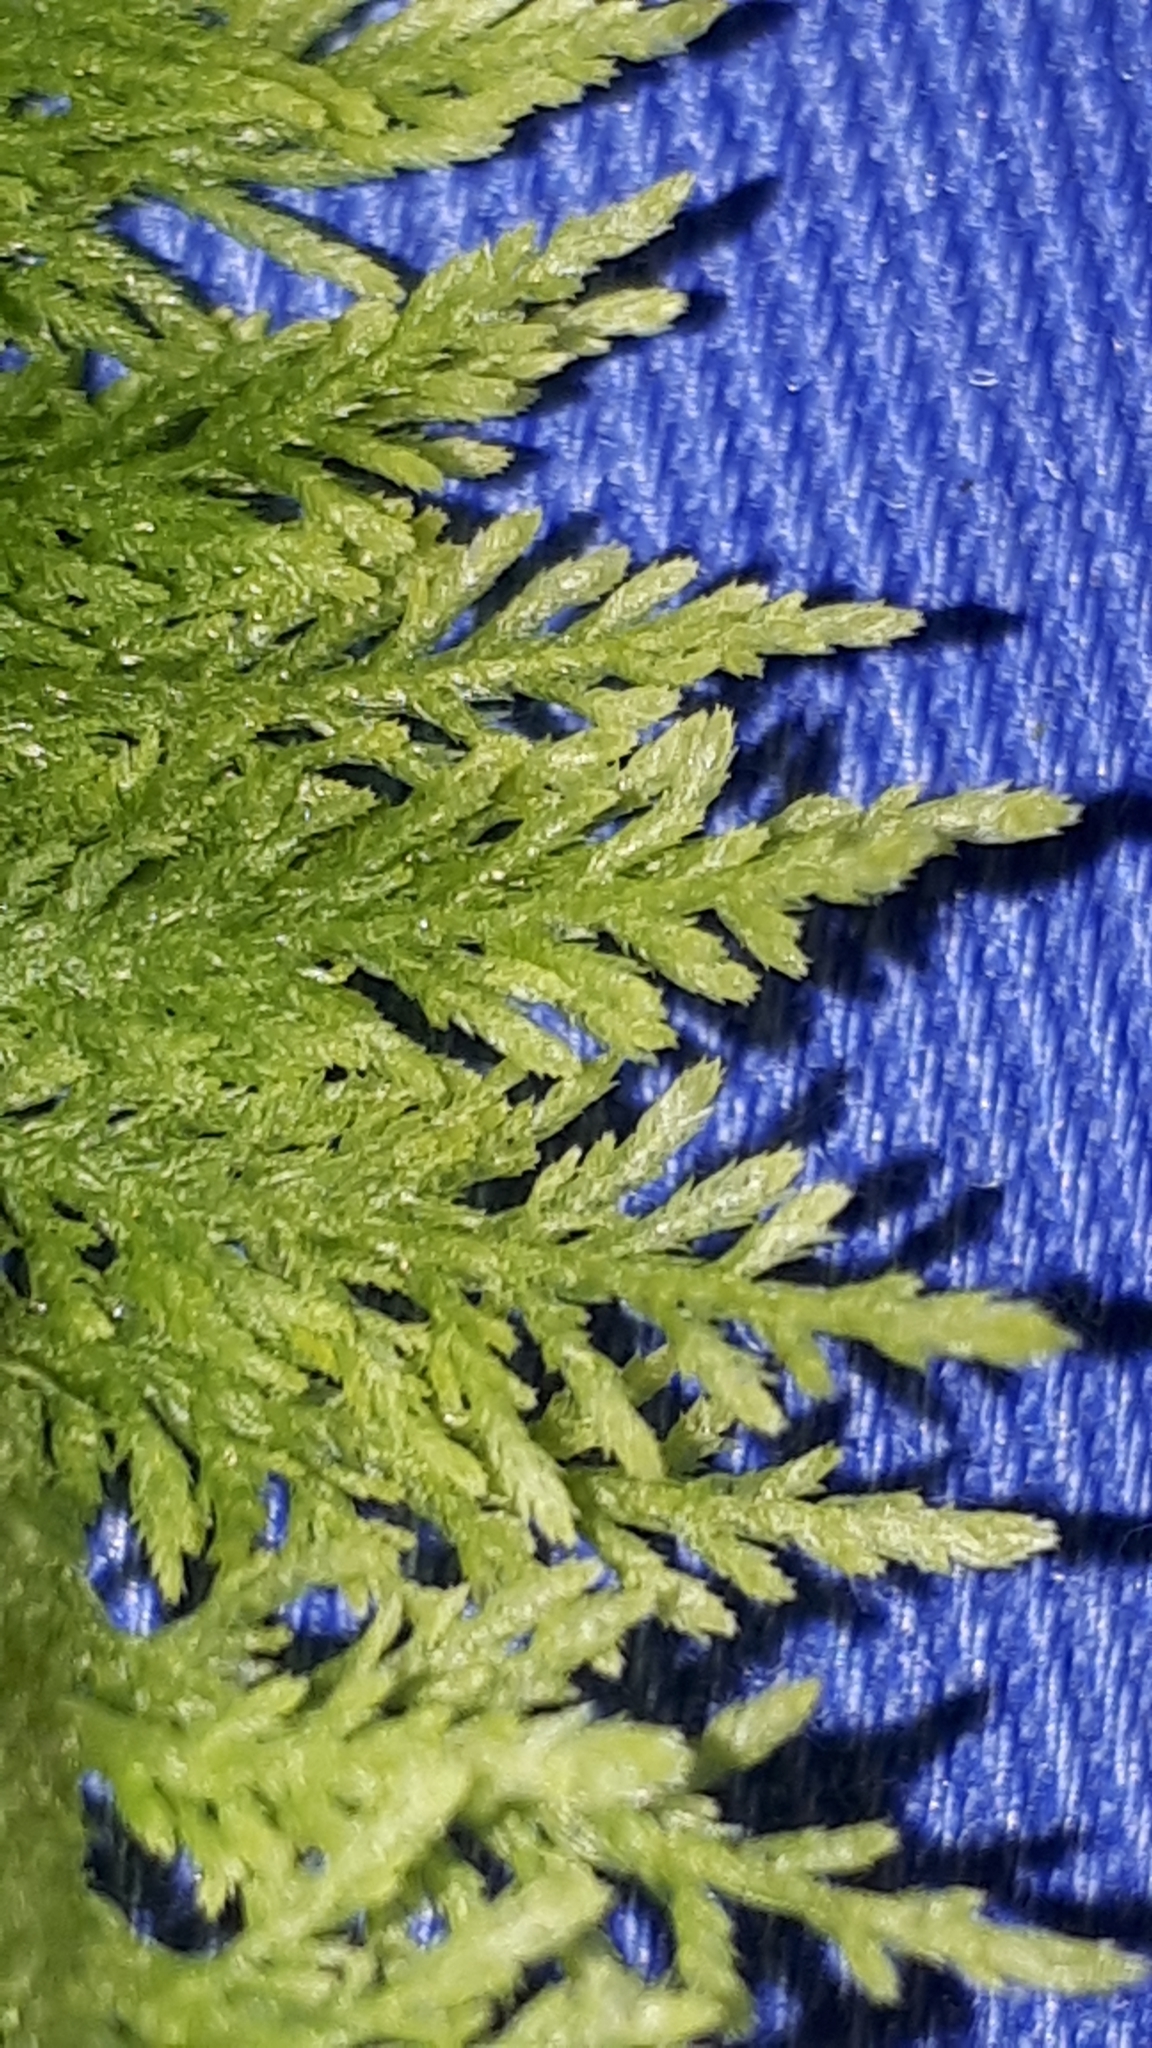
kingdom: Plantae
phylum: Bryophyta
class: Bryopsida
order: Hypnales
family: Thuidiaceae
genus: Thuidium
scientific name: Thuidium tamariscinum
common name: Common tamarisk-moss
